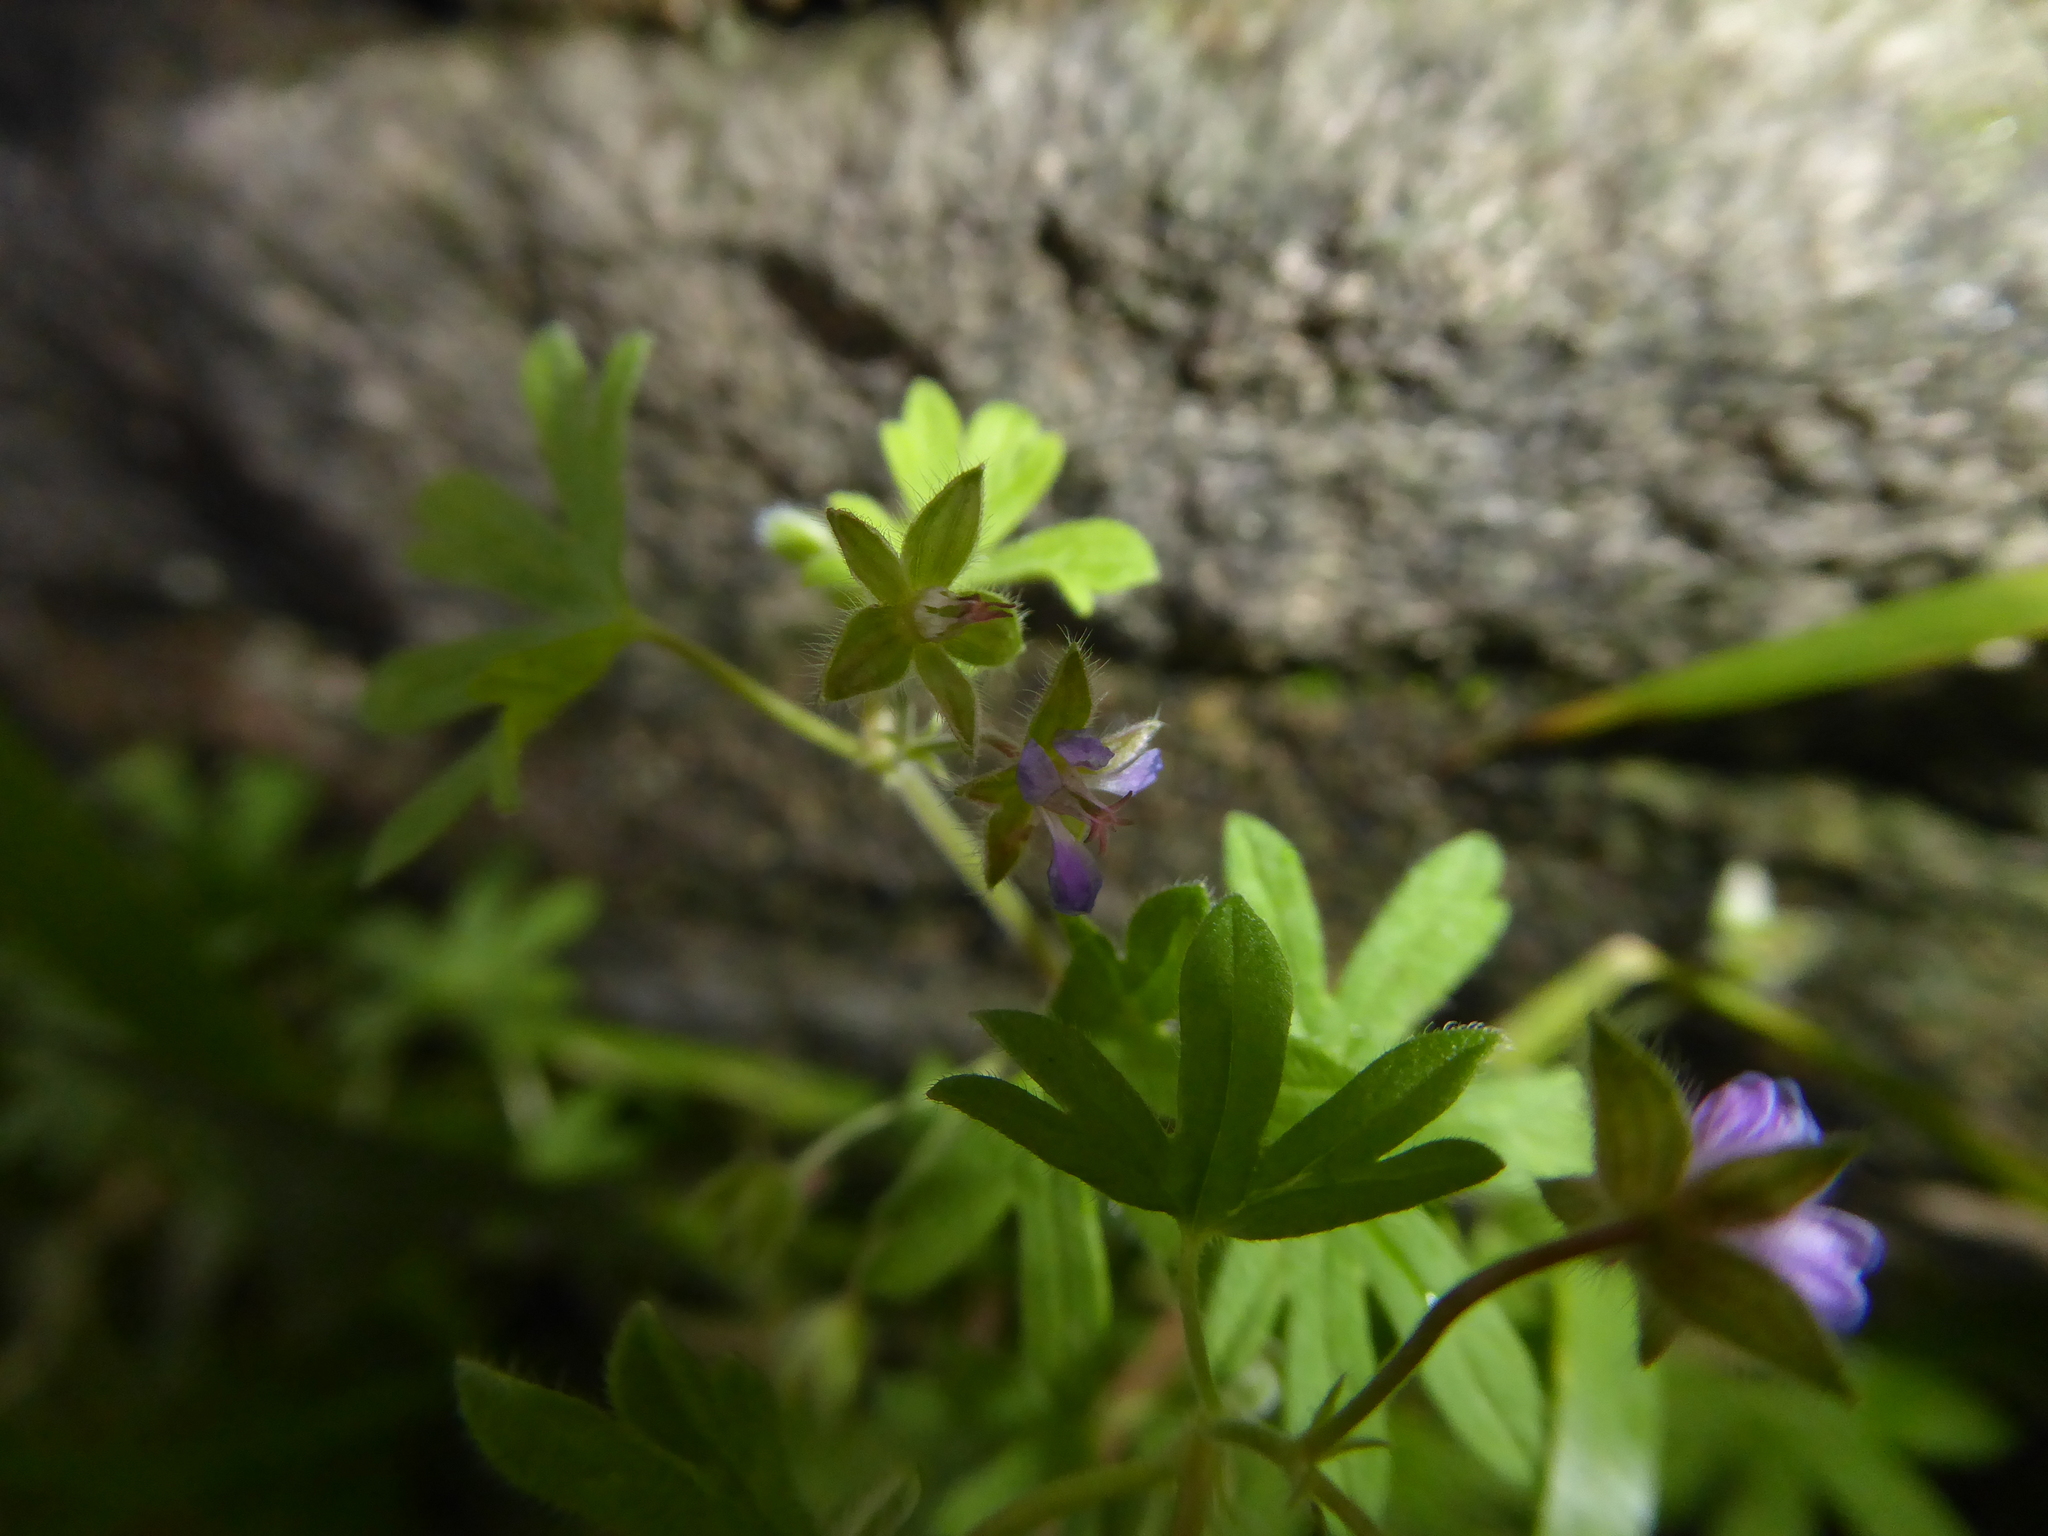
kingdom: Plantae
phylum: Tracheophyta
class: Magnoliopsida
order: Geraniales
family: Geraniaceae
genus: Geranium
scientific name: Geranium pusillum
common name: Small geranium
